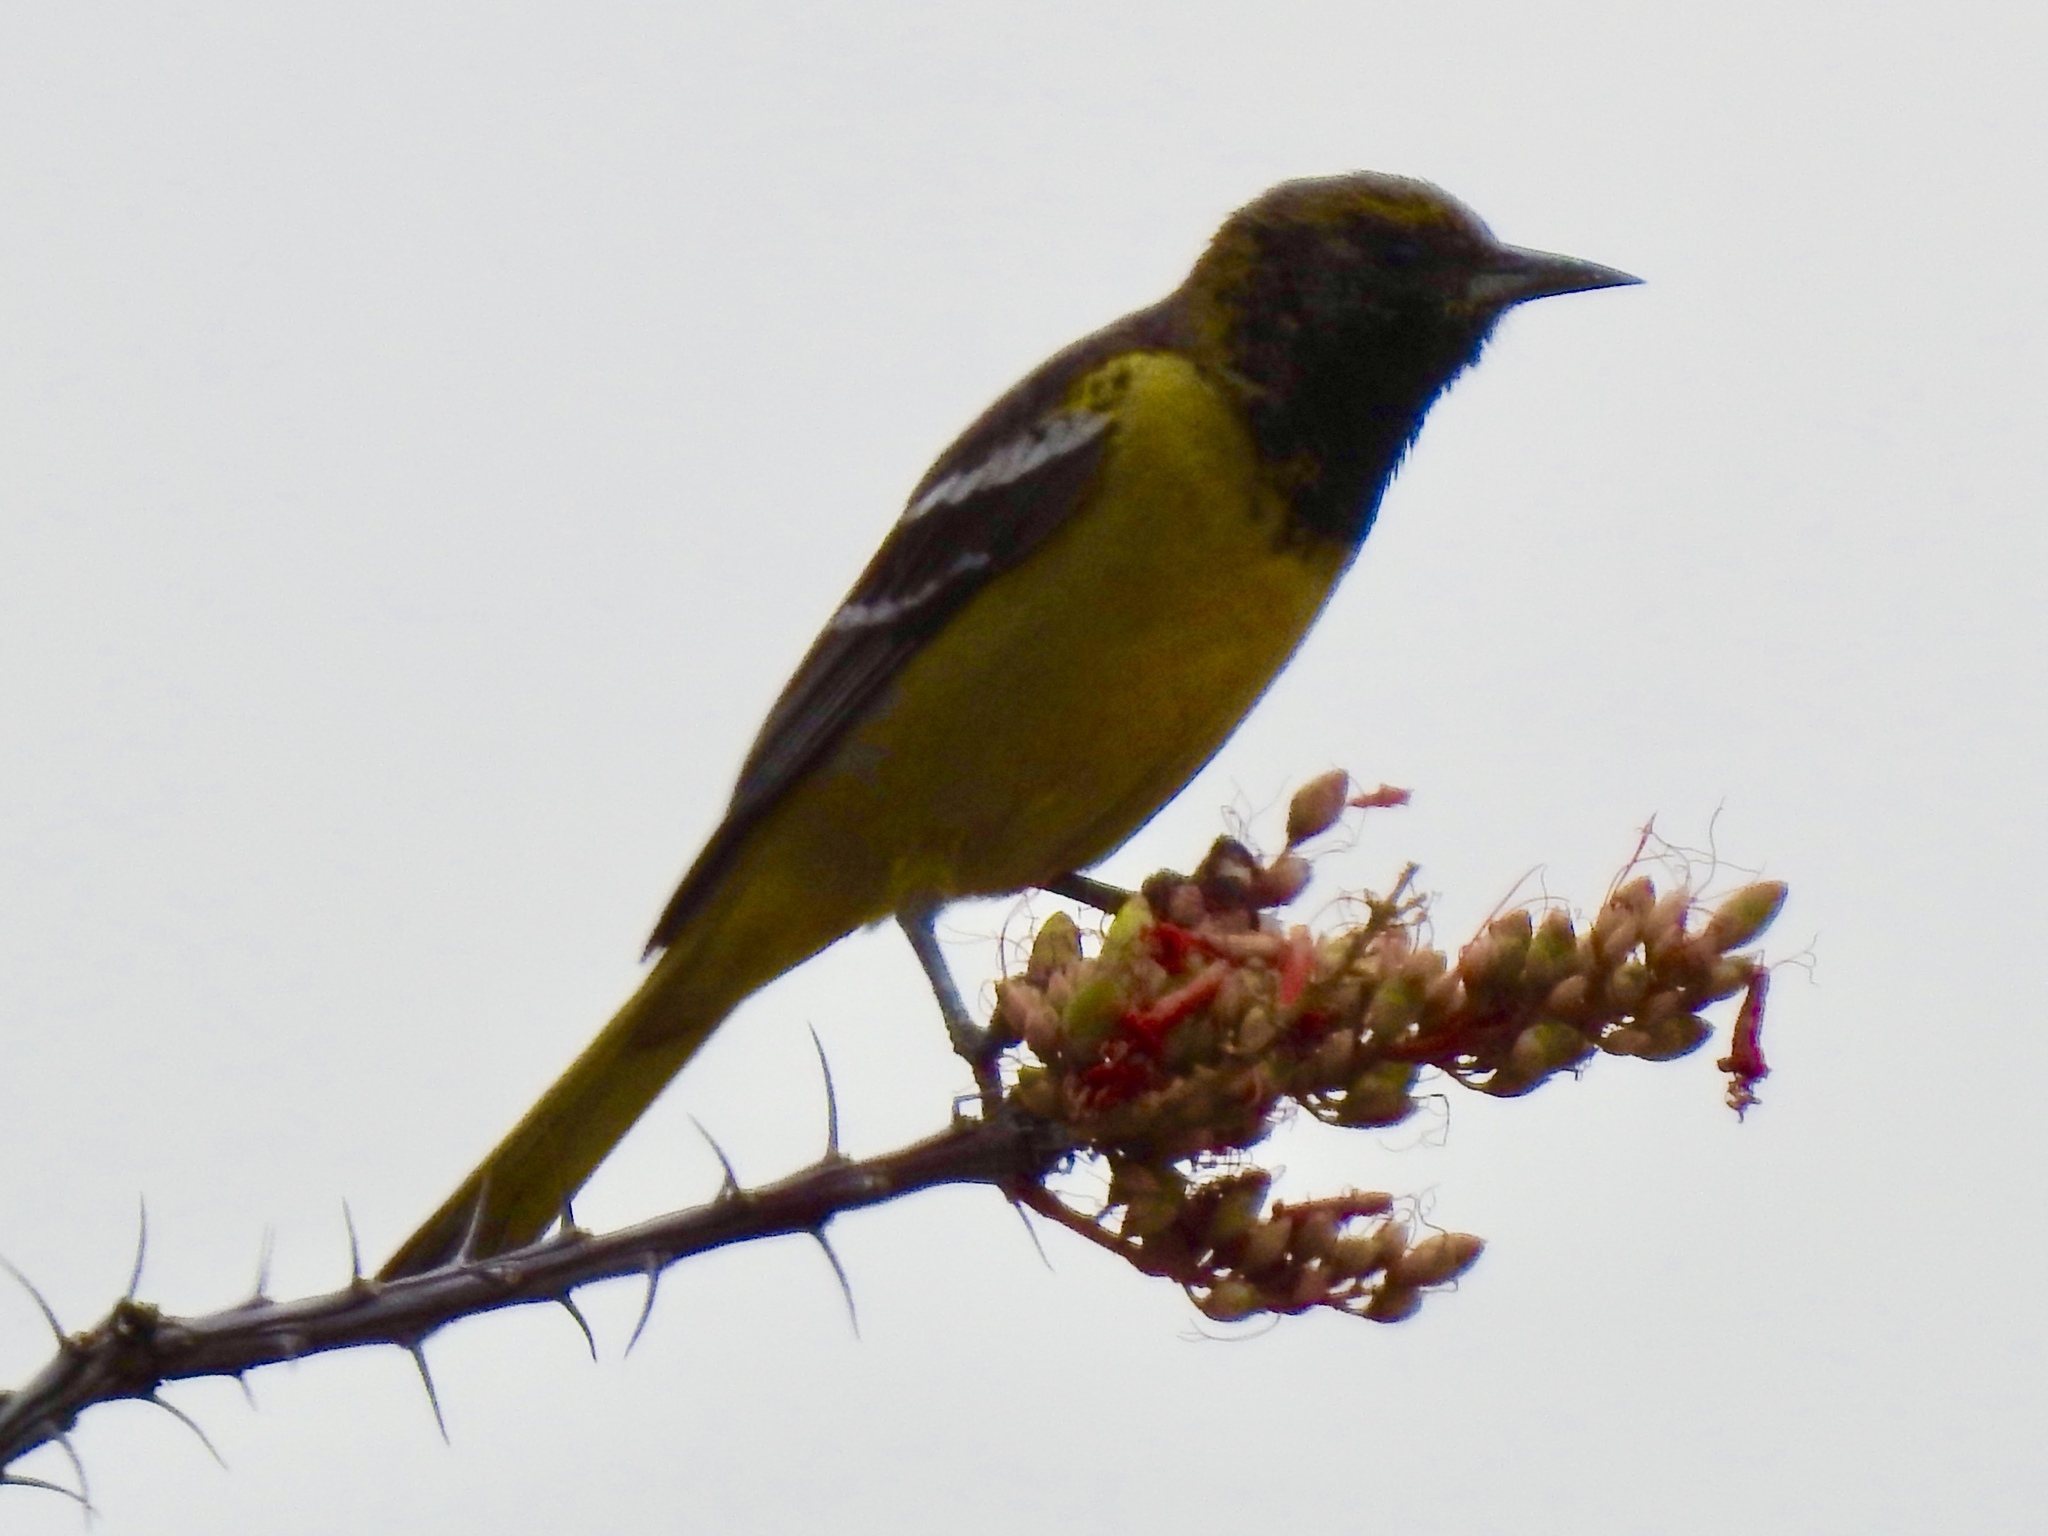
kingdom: Animalia
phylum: Chordata
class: Aves
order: Passeriformes
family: Icteridae
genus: Icterus
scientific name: Icterus parisorum
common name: Scott's oriole
